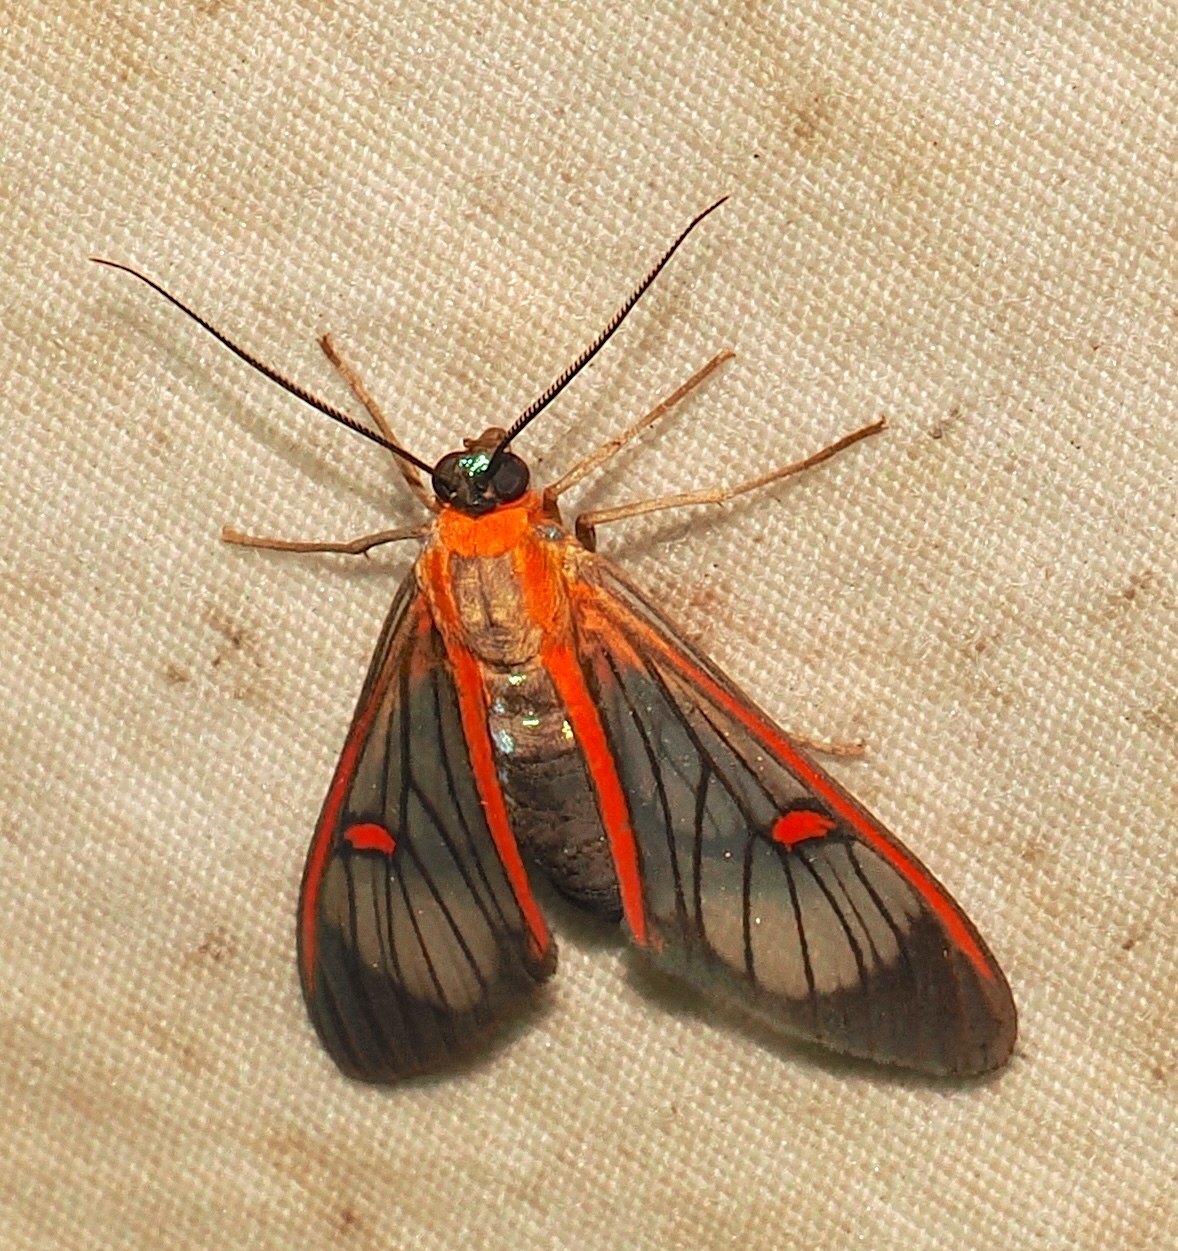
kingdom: Animalia
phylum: Arthropoda
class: Insecta
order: Lepidoptera
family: Erebidae
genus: Lepidoneiva
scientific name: Lepidoneiva erubescens
